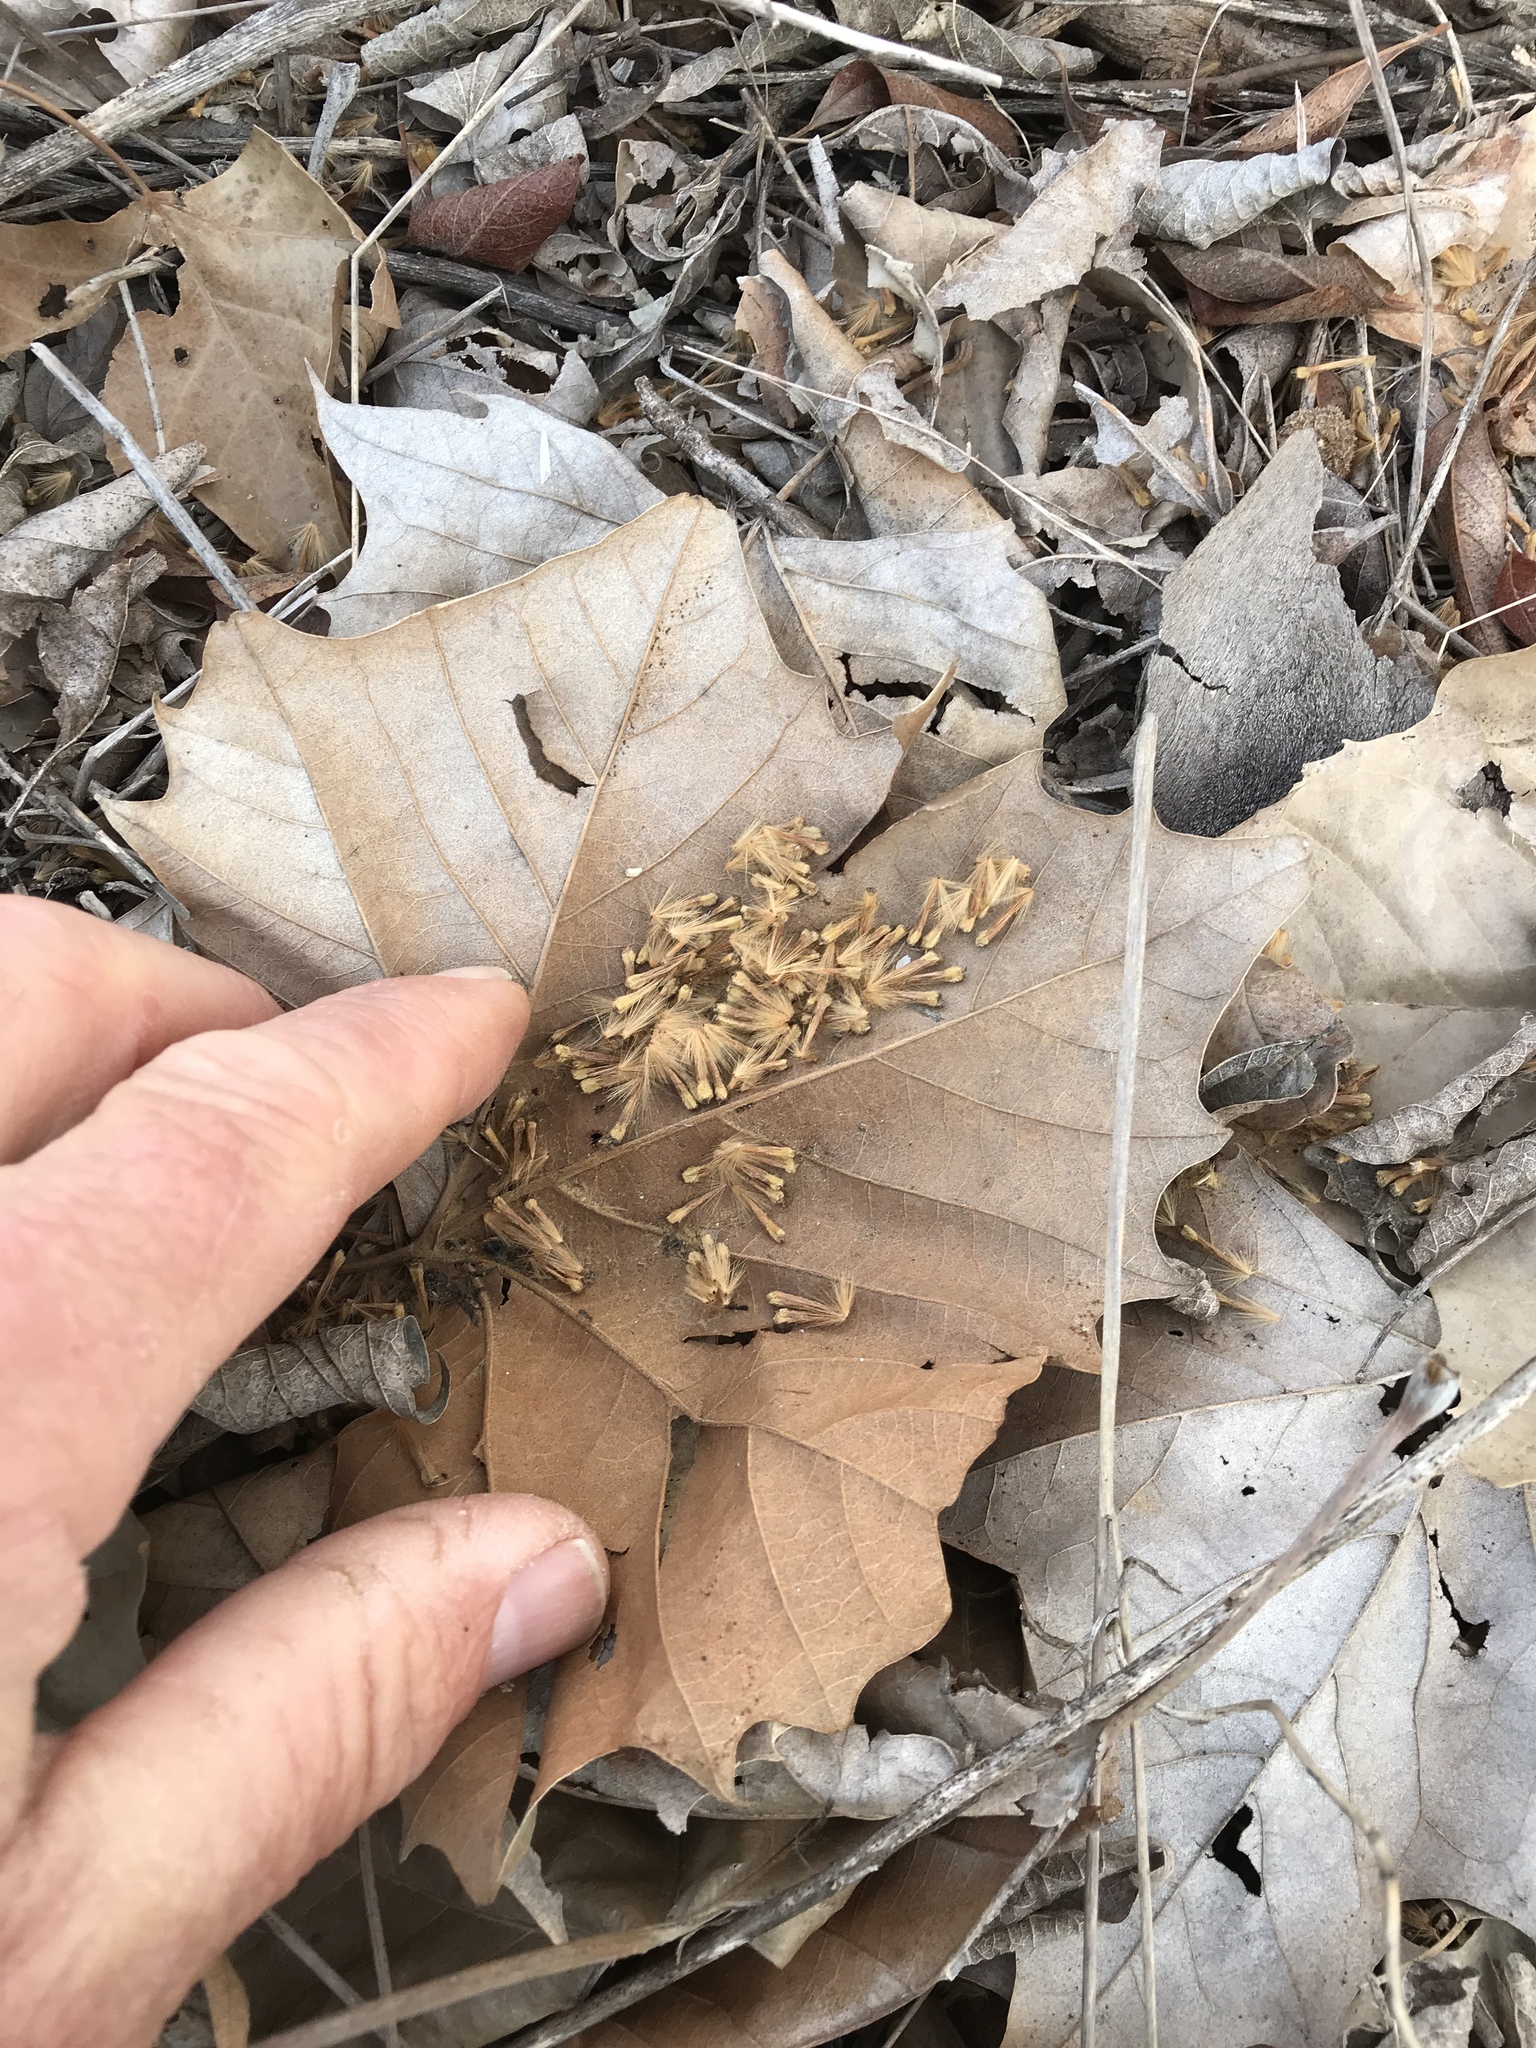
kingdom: Plantae
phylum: Tracheophyta
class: Magnoliopsida
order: Proteales
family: Platanaceae
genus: Platanus
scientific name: Platanus occidentalis
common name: American sycamore
